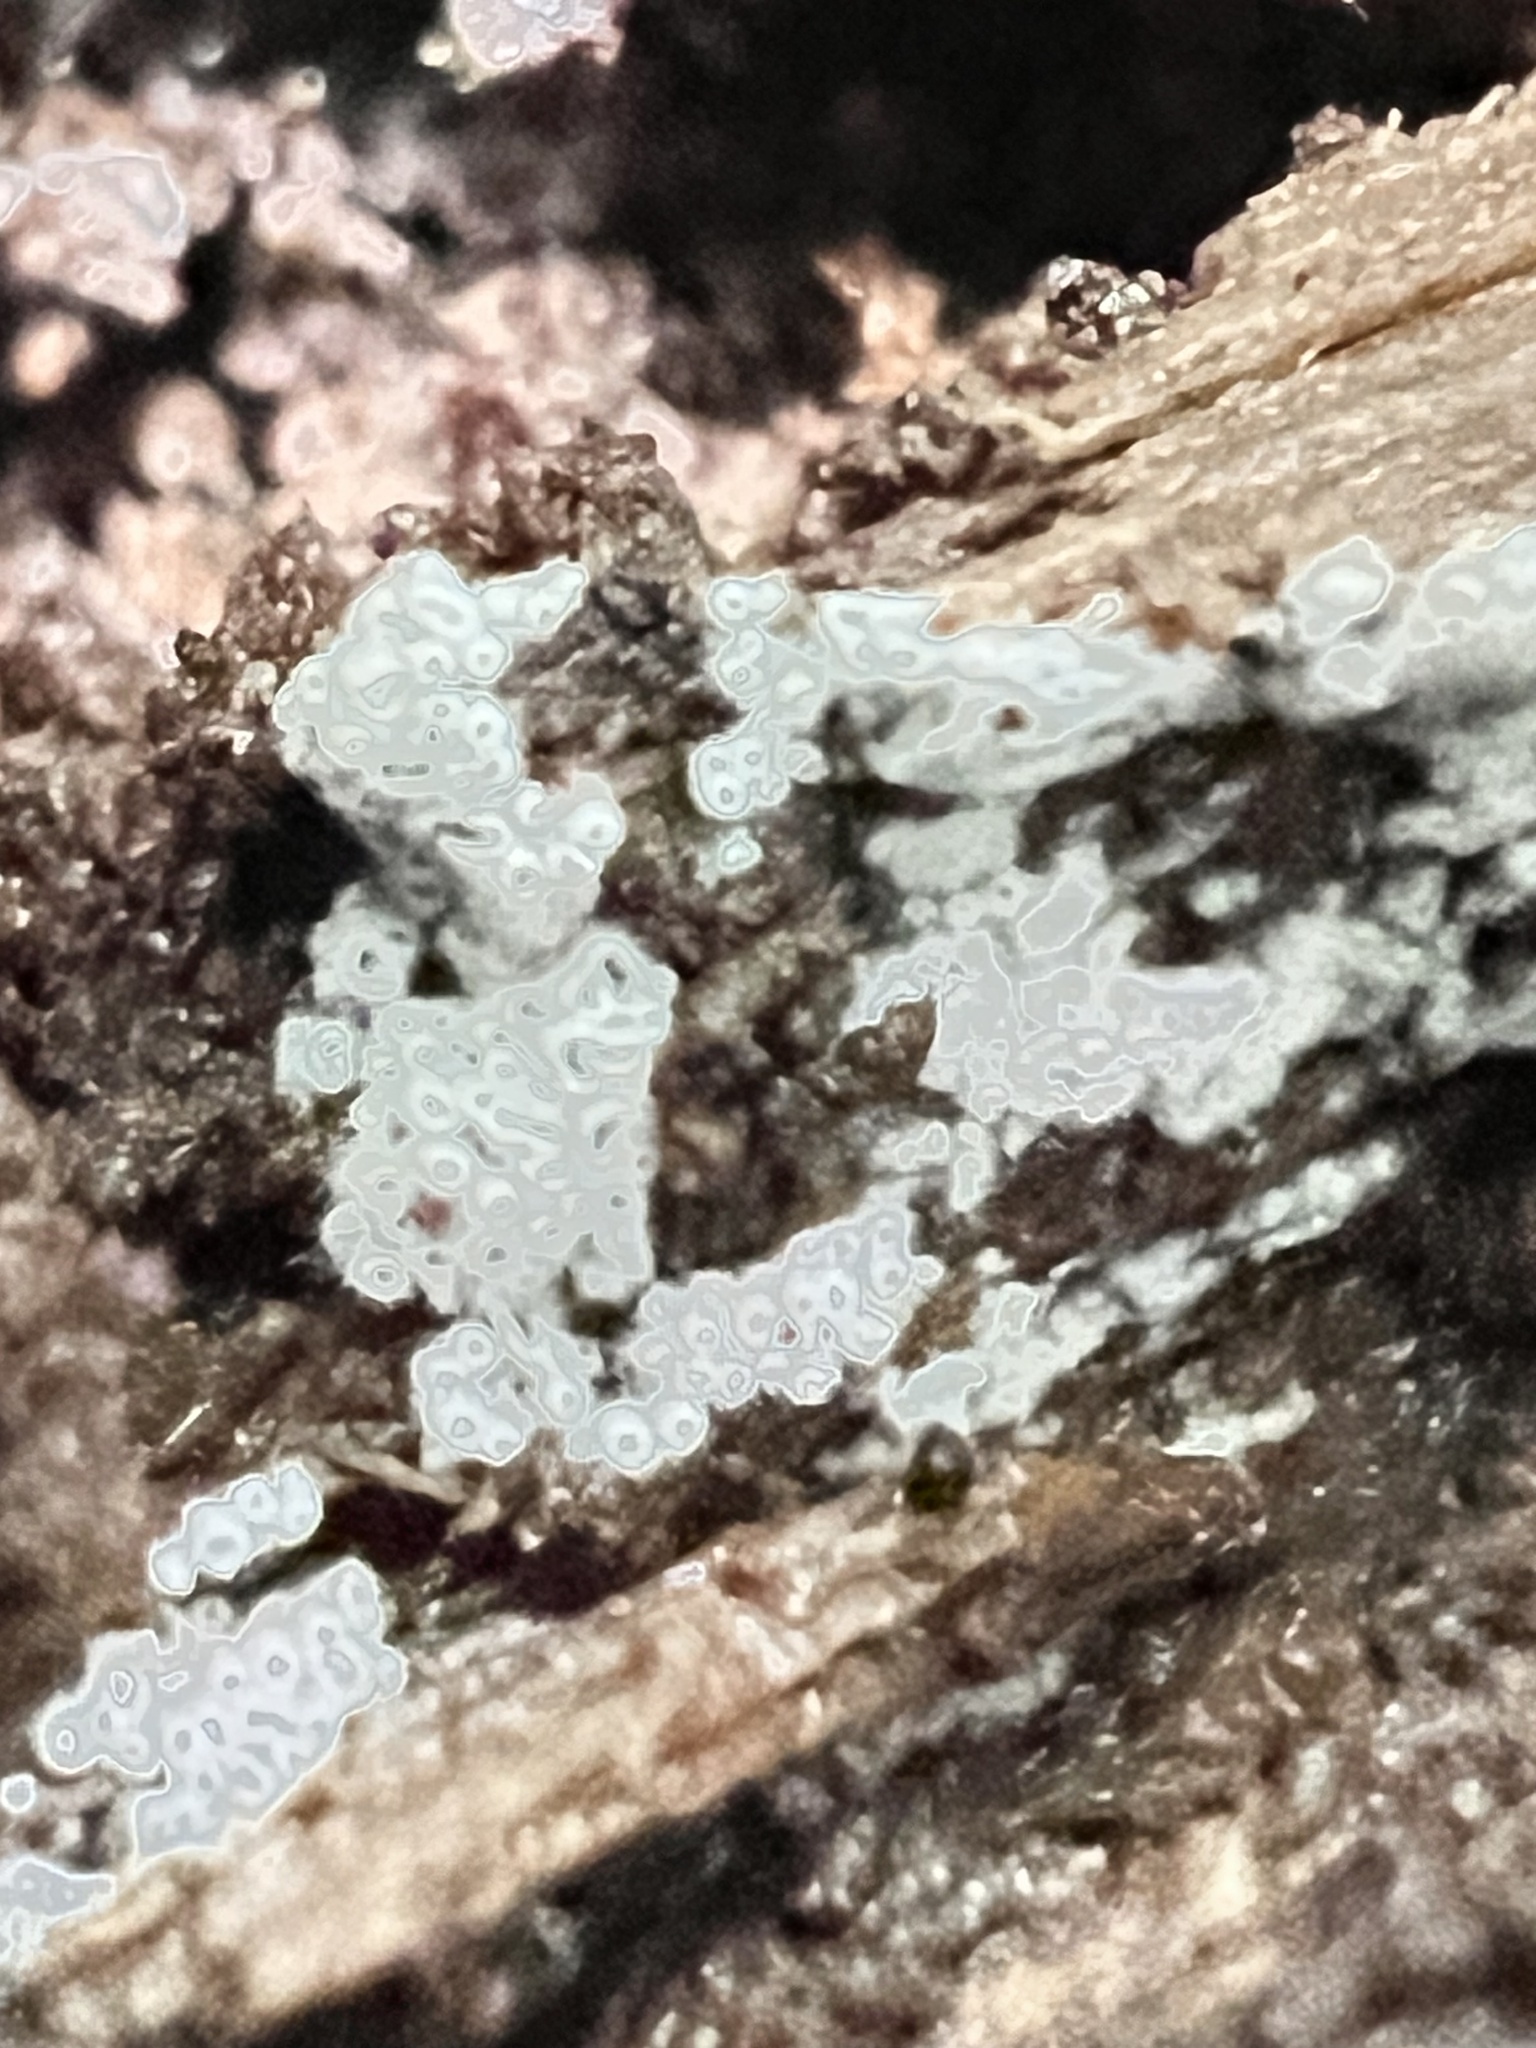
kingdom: Fungi
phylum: Basidiomycota
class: Agaricomycetes
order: Agaricales
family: Marasmiaceae
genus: Henningsomyces
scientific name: Henningsomyces candidus
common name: White tubelet
